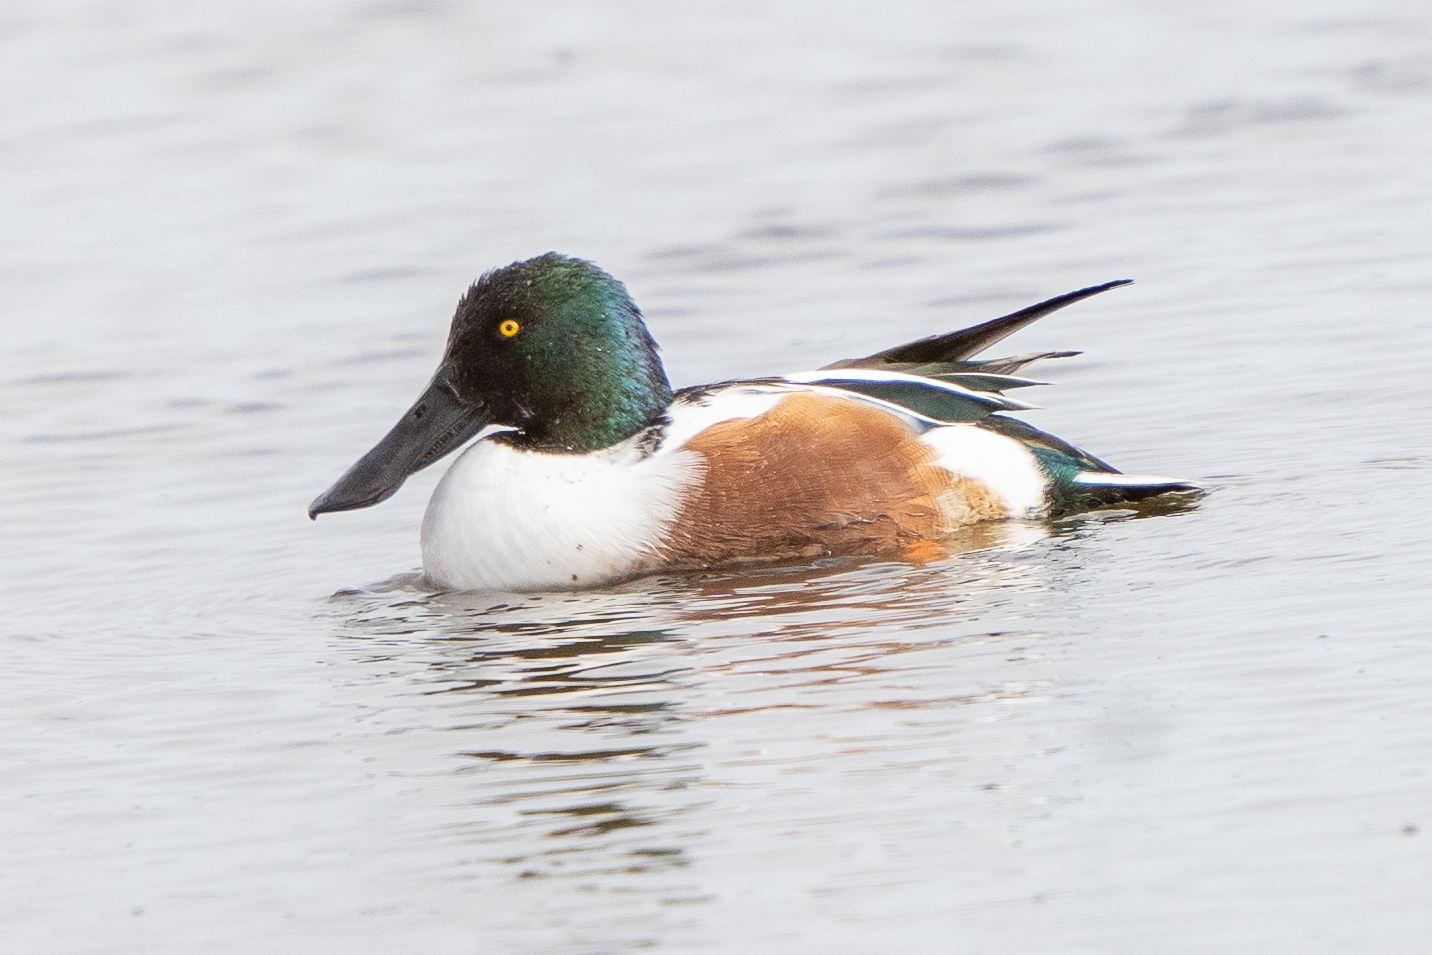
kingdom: Animalia
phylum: Chordata
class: Aves
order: Anseriformes
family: Anatidae
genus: Spatula
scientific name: Spatula clypeata
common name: Northern shoveler
